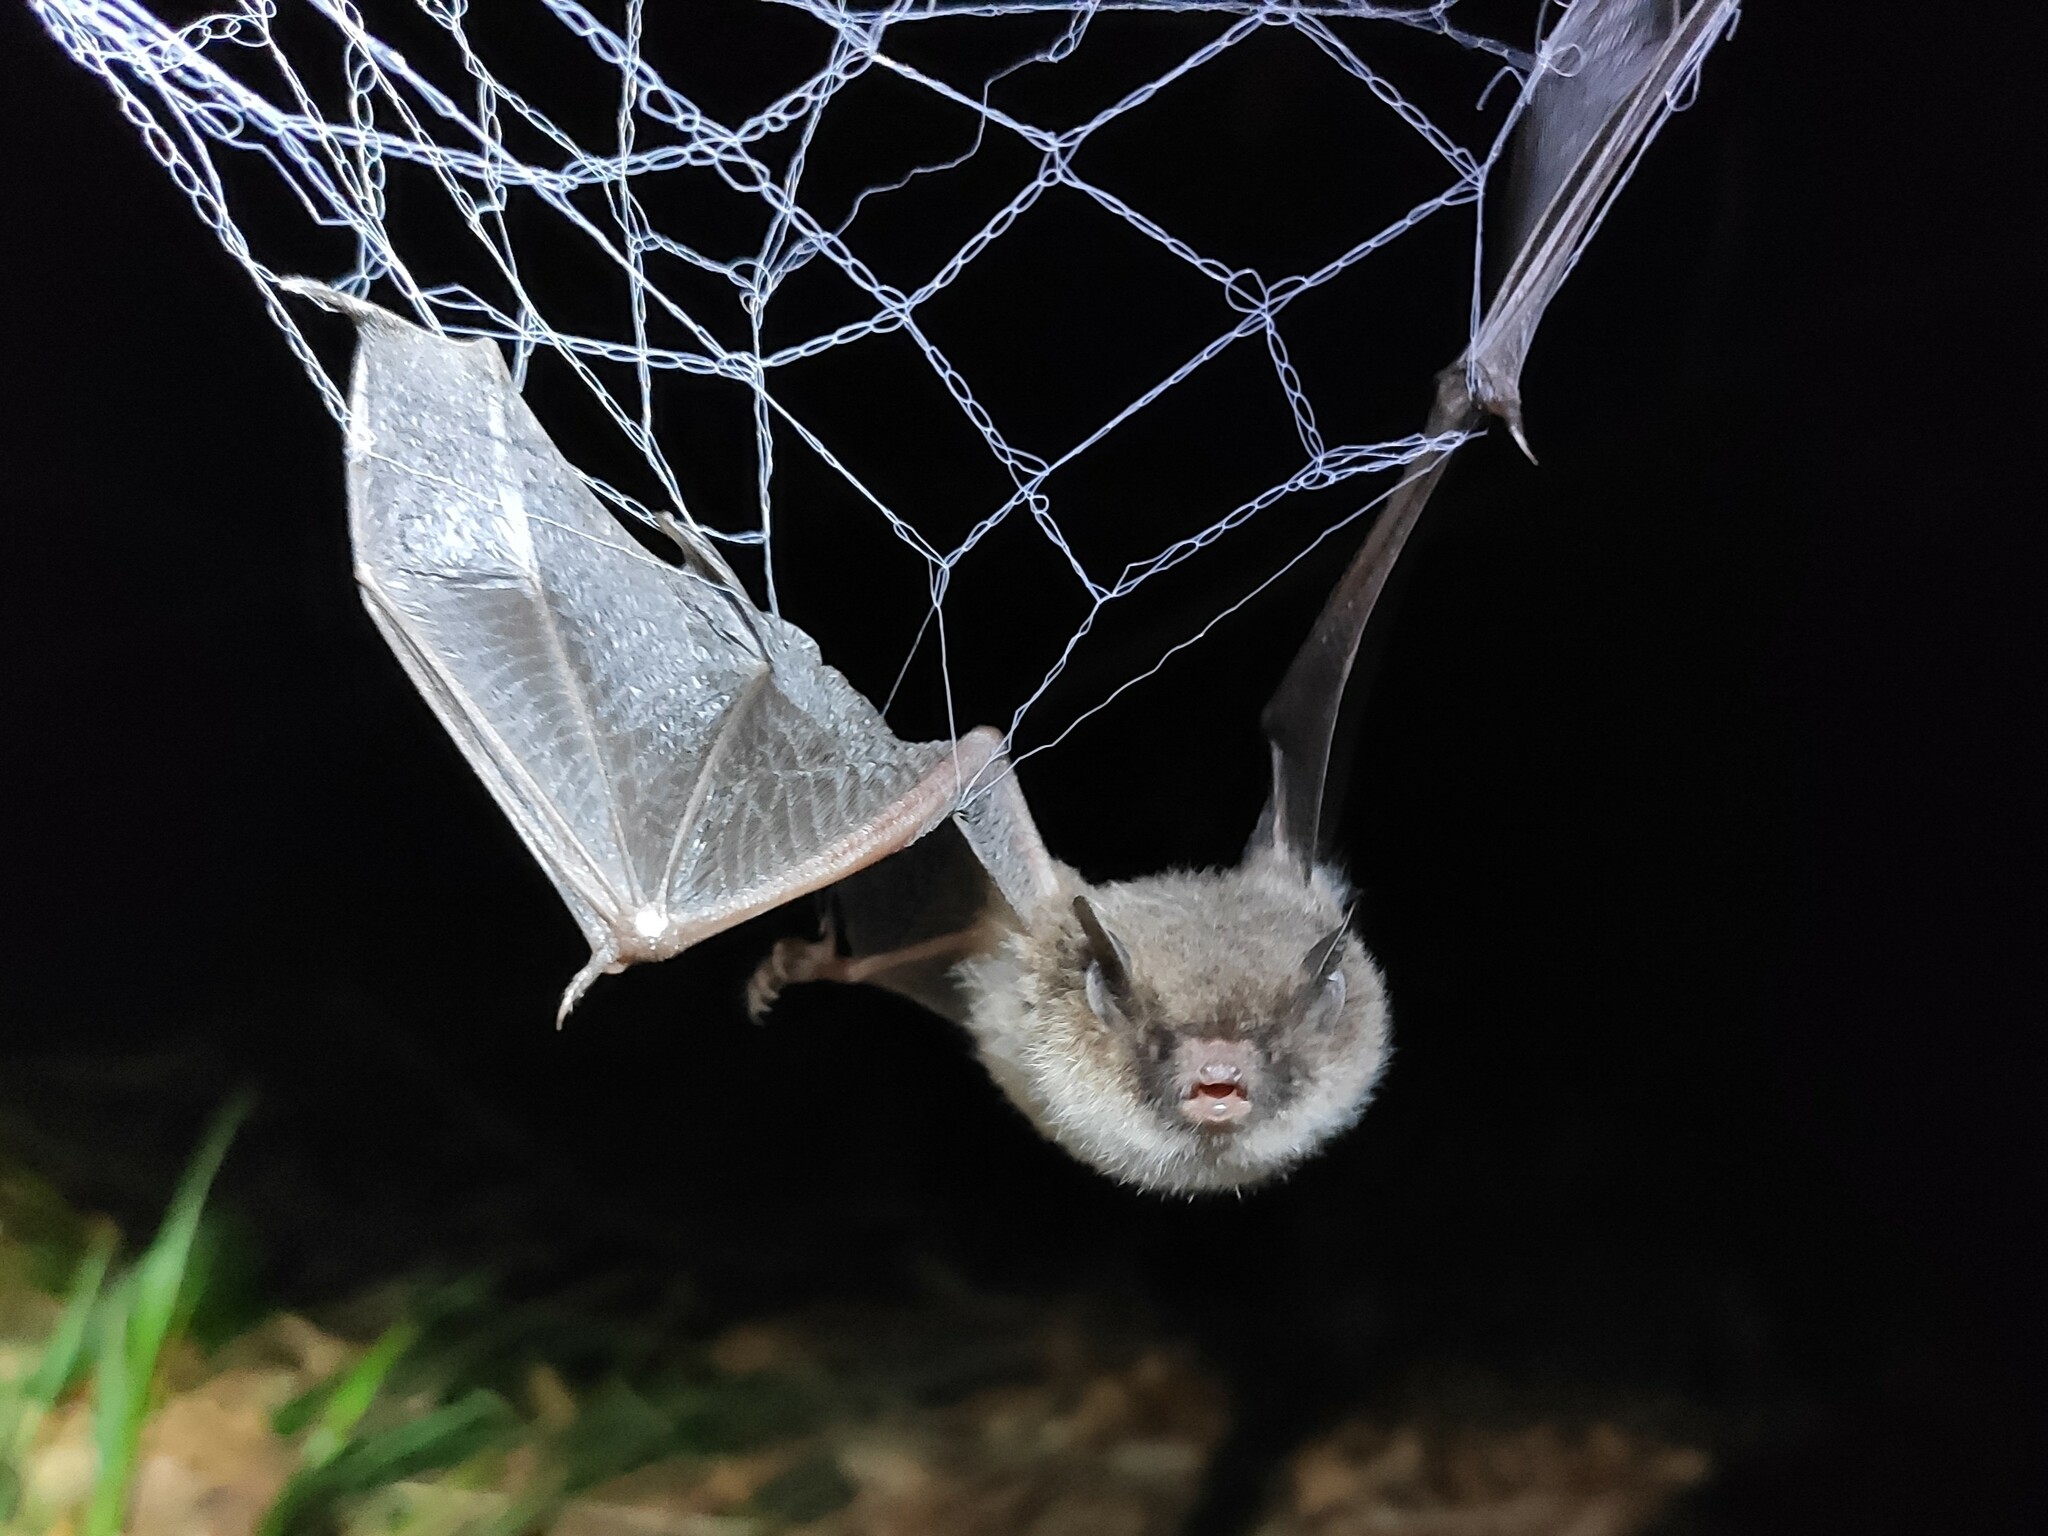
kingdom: Animalia
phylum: Chordata
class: Mammalia
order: Chiroptera
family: Vespertilionidae
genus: Myotis
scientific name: Myotis daubentonii
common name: Daubenton's myotis
